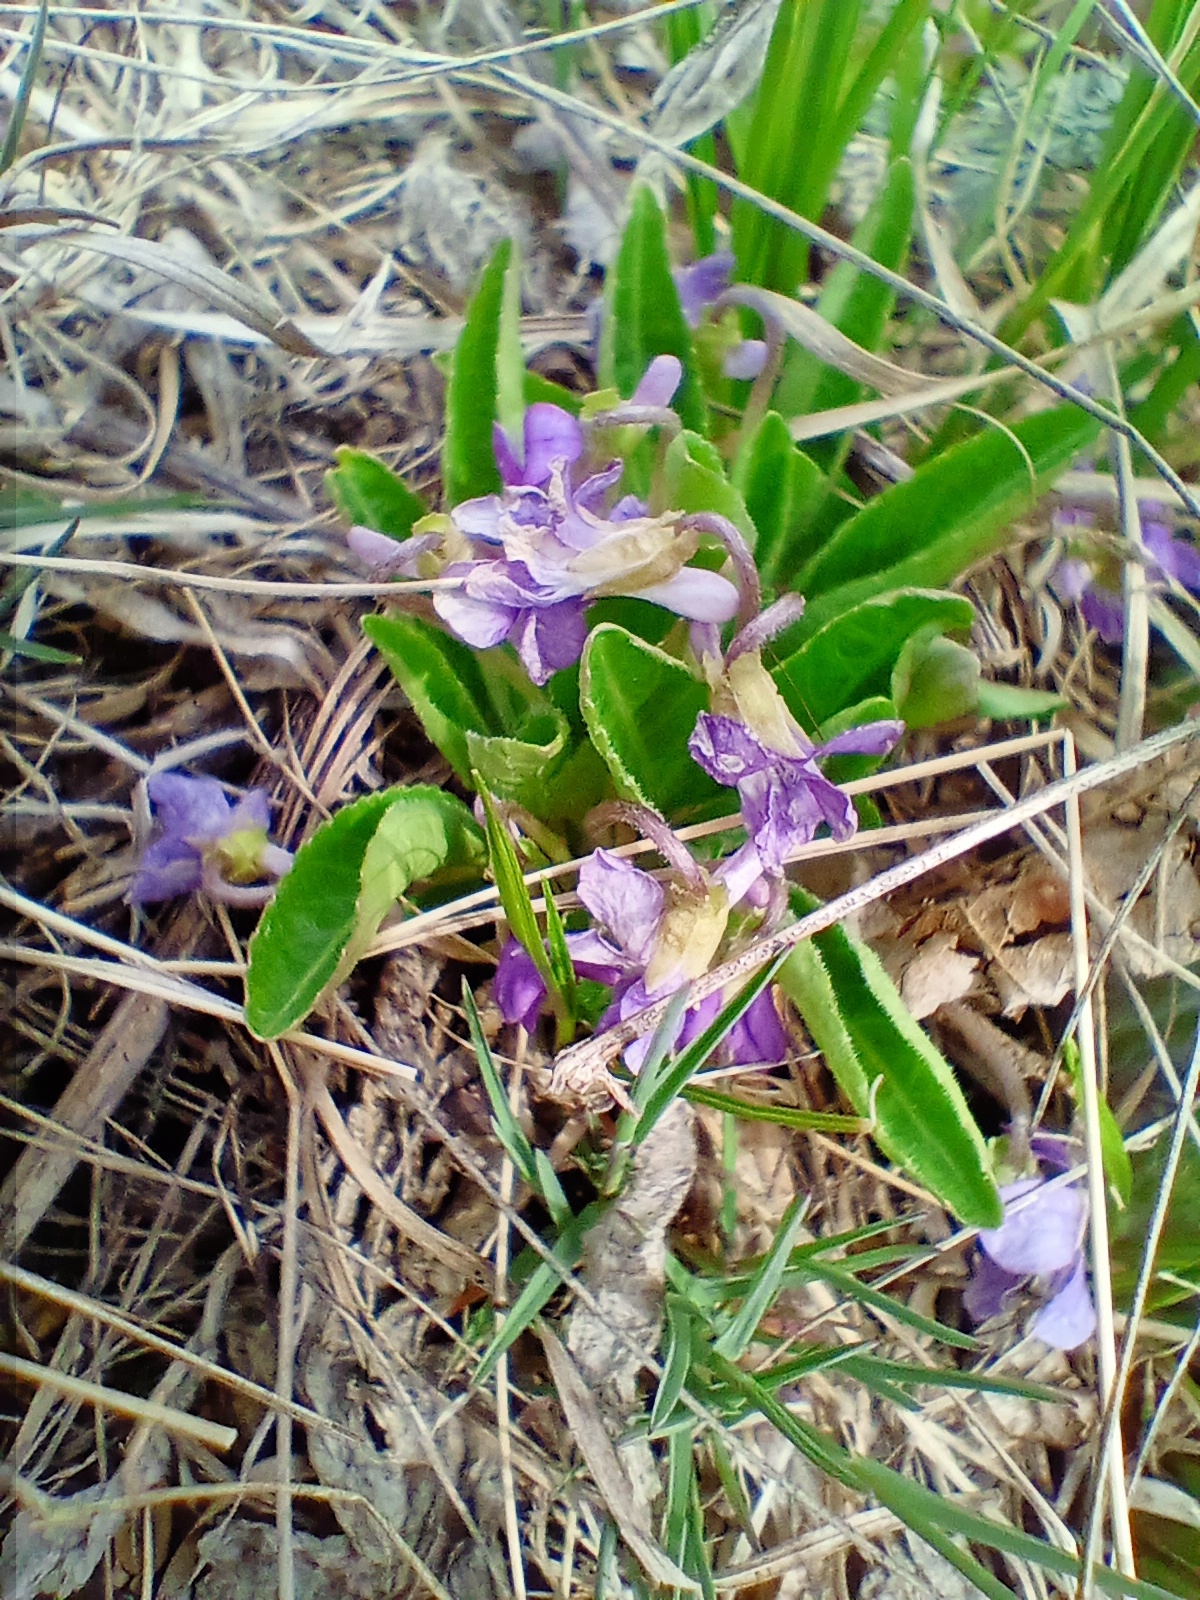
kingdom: Plantae
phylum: Tracheophyta
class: Magnoliopsida
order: Malpighiales
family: Violaceae
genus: Viola
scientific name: Viola gmeliniana
